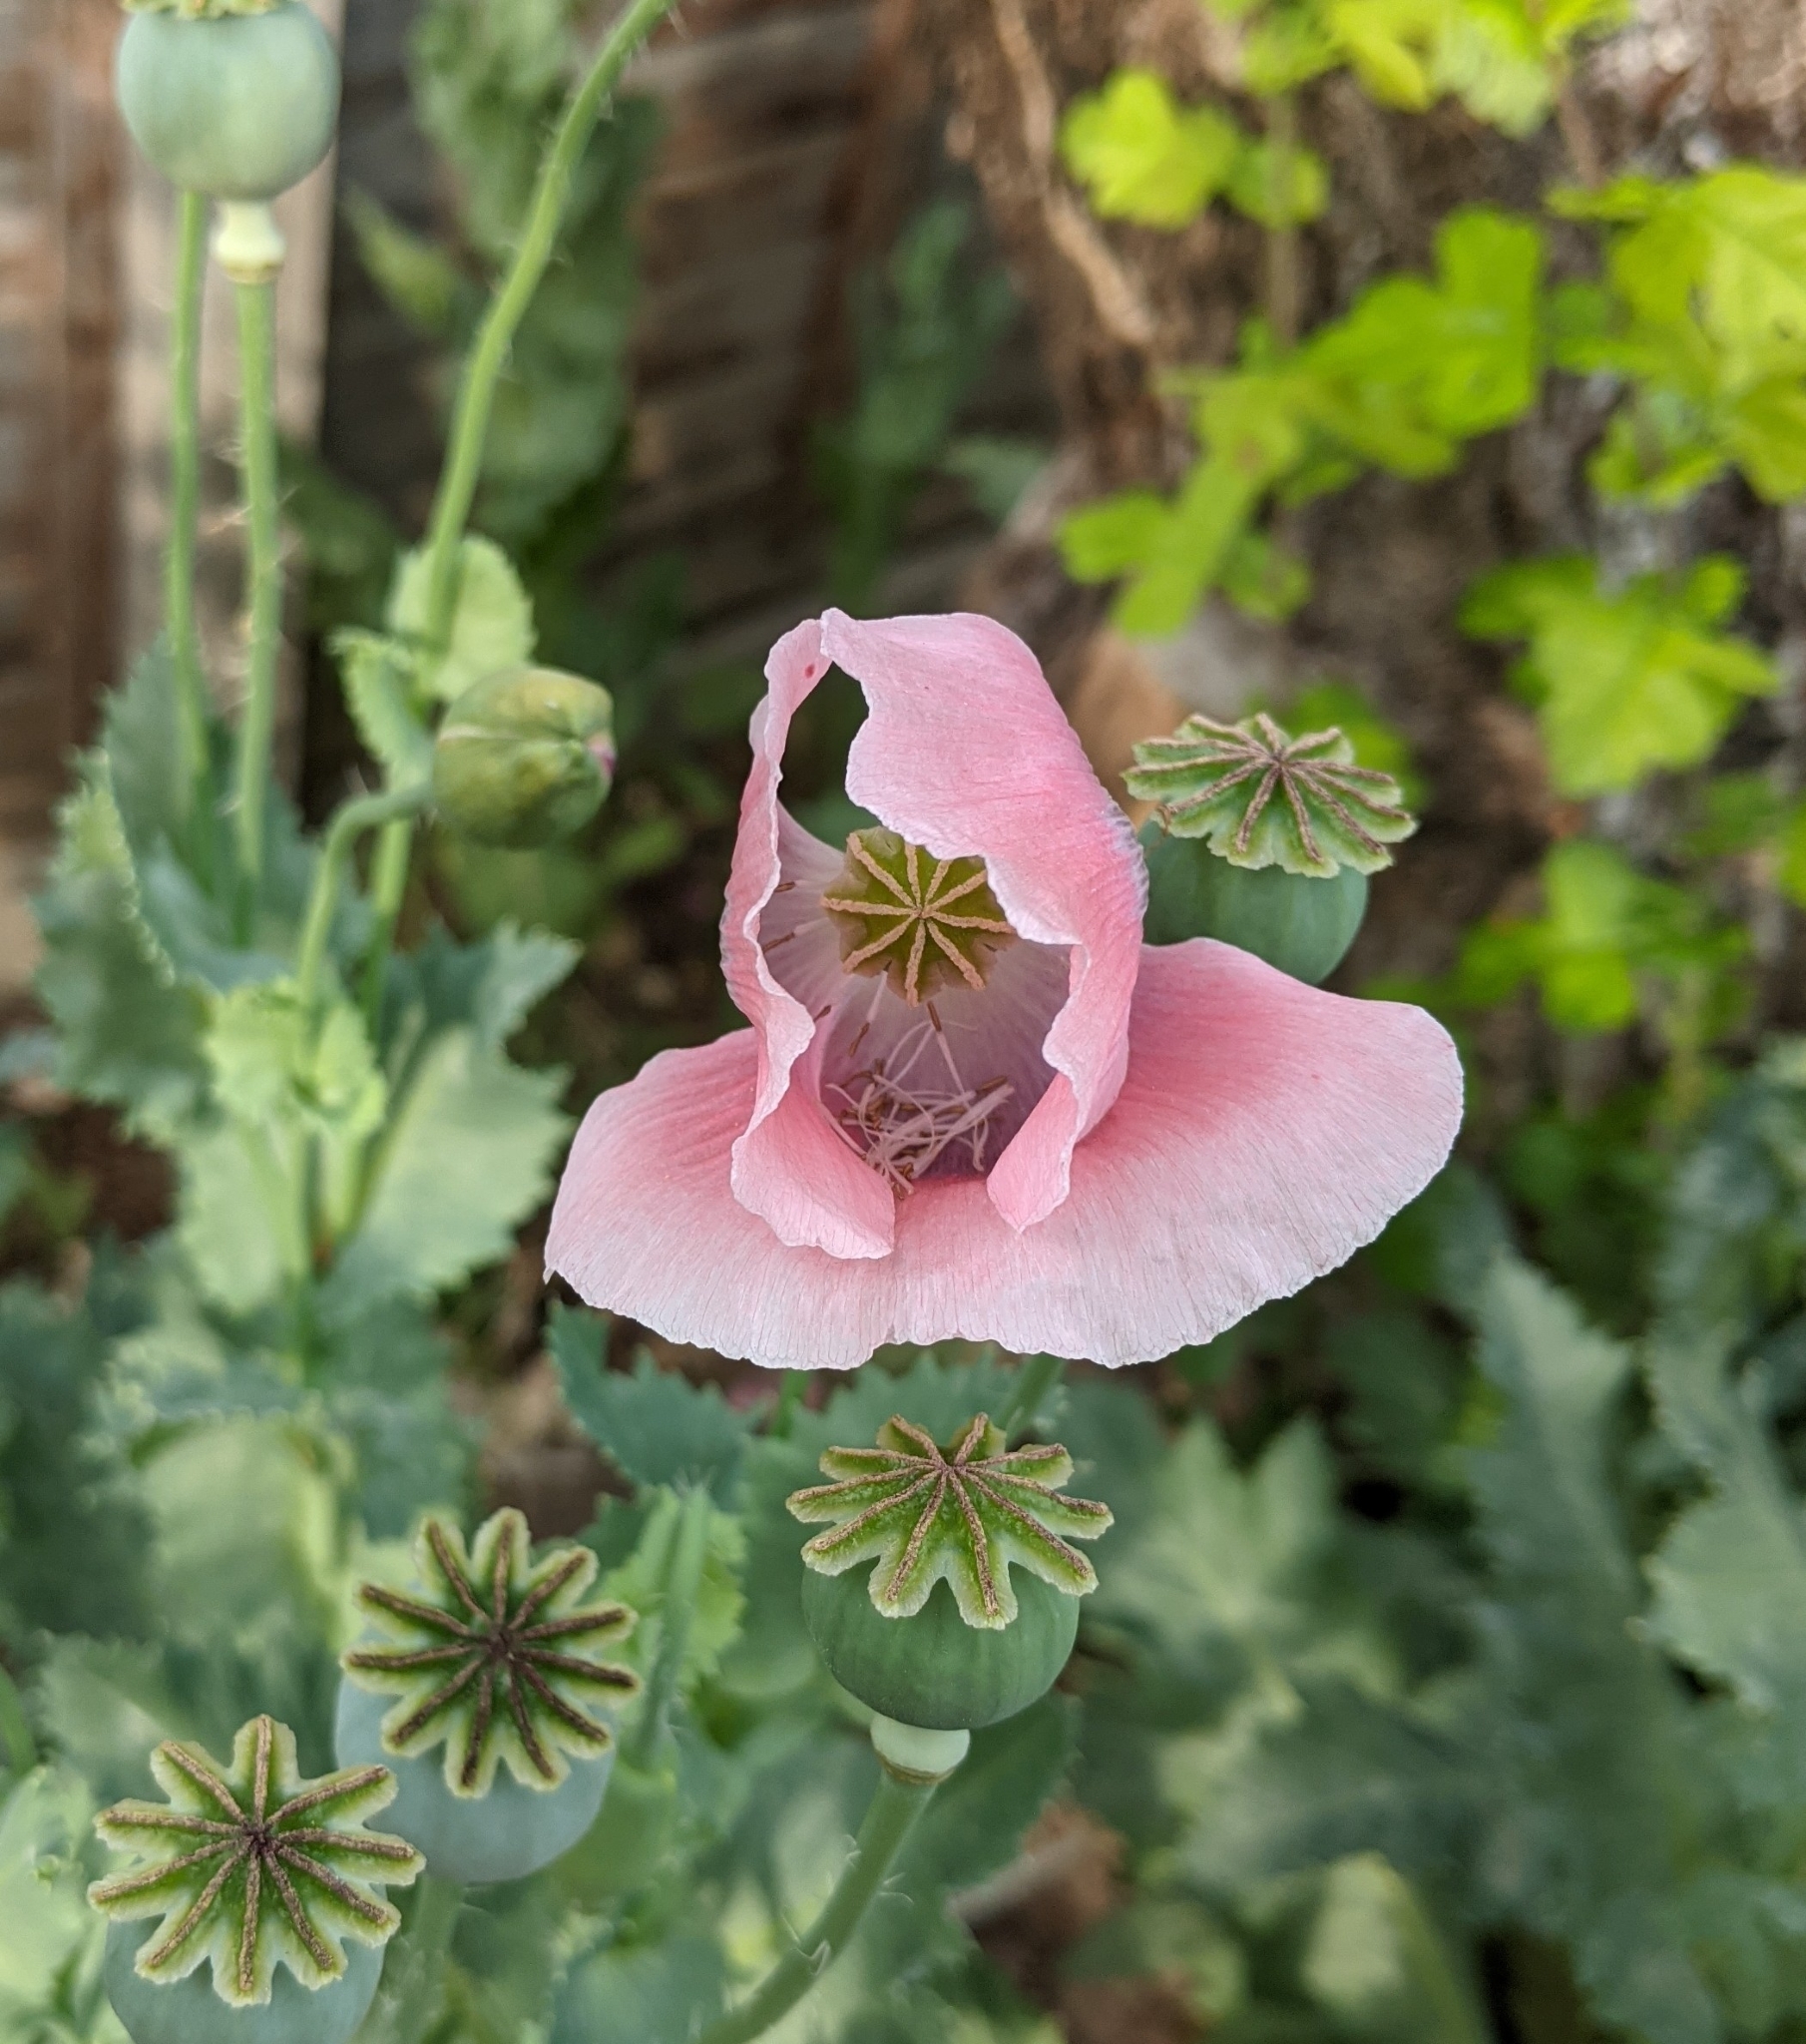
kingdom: Plantae
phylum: Tracheophyta
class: Magnoliopsida
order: Ranunculales
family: Papaveraceae
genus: Papaver
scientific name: Papaver somniferum
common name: Opium poppy
